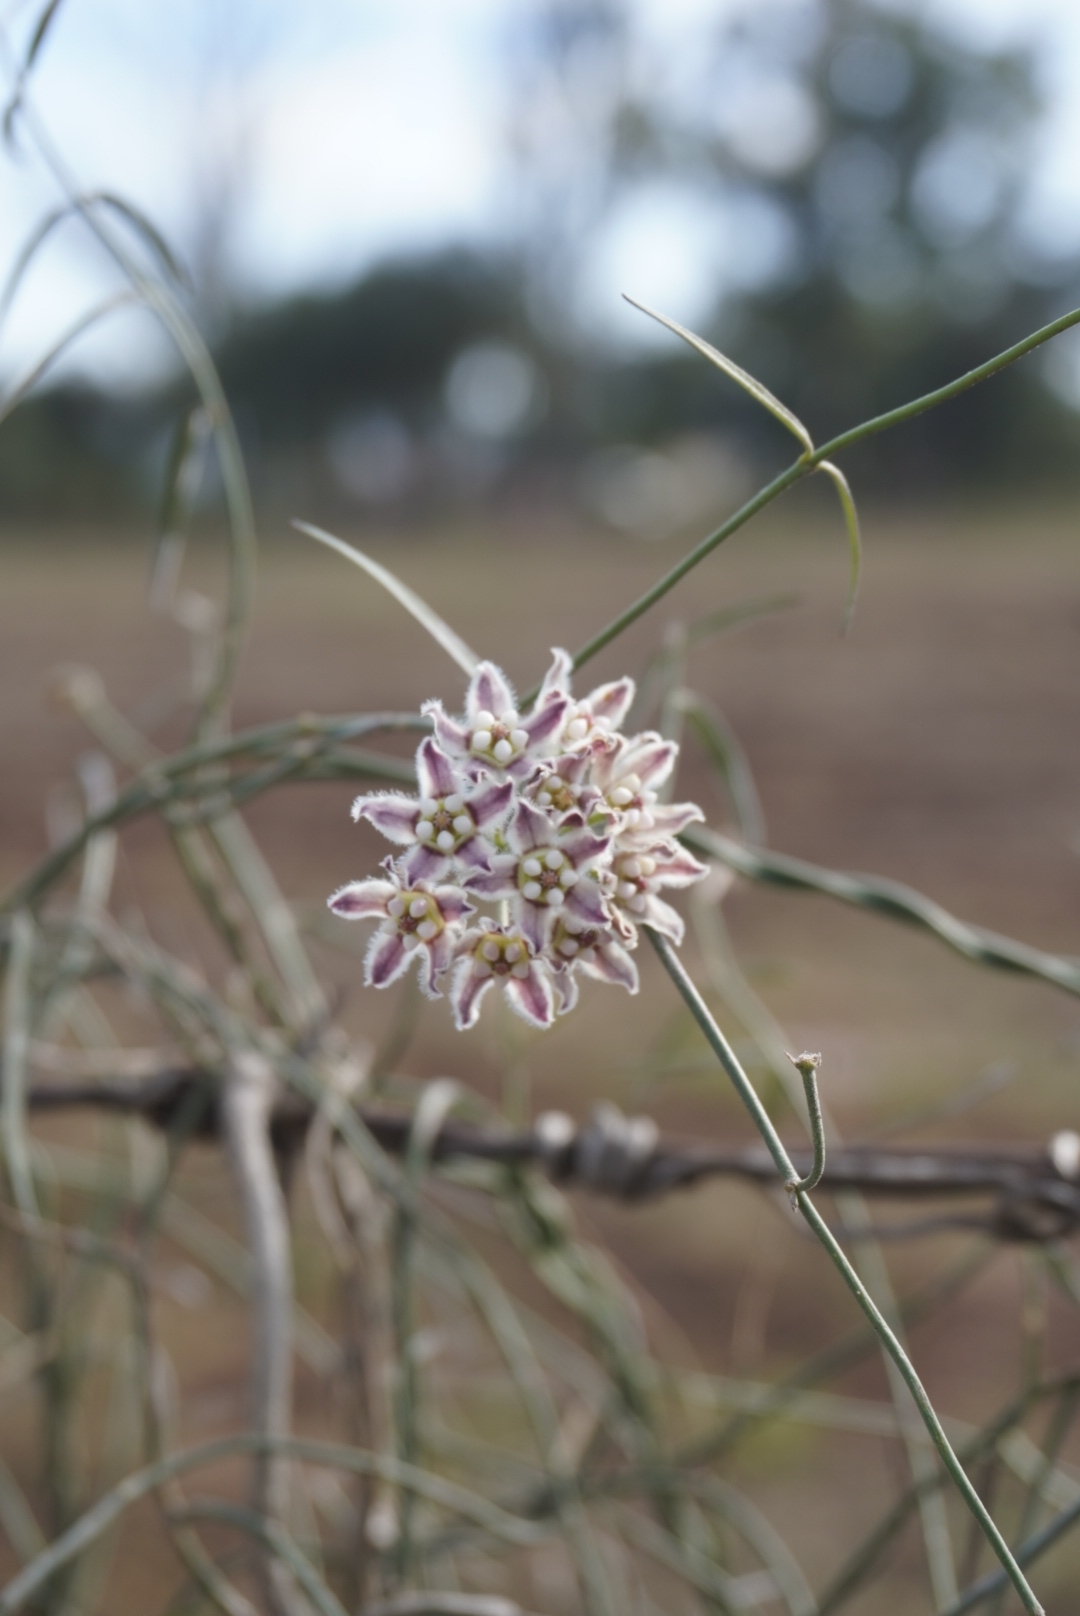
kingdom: Plantae
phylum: Tracheophyta
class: Magnoliopsida
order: Gentianales
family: Apocynaceae
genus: Funastrum
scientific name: Funastrum heterophyllum
